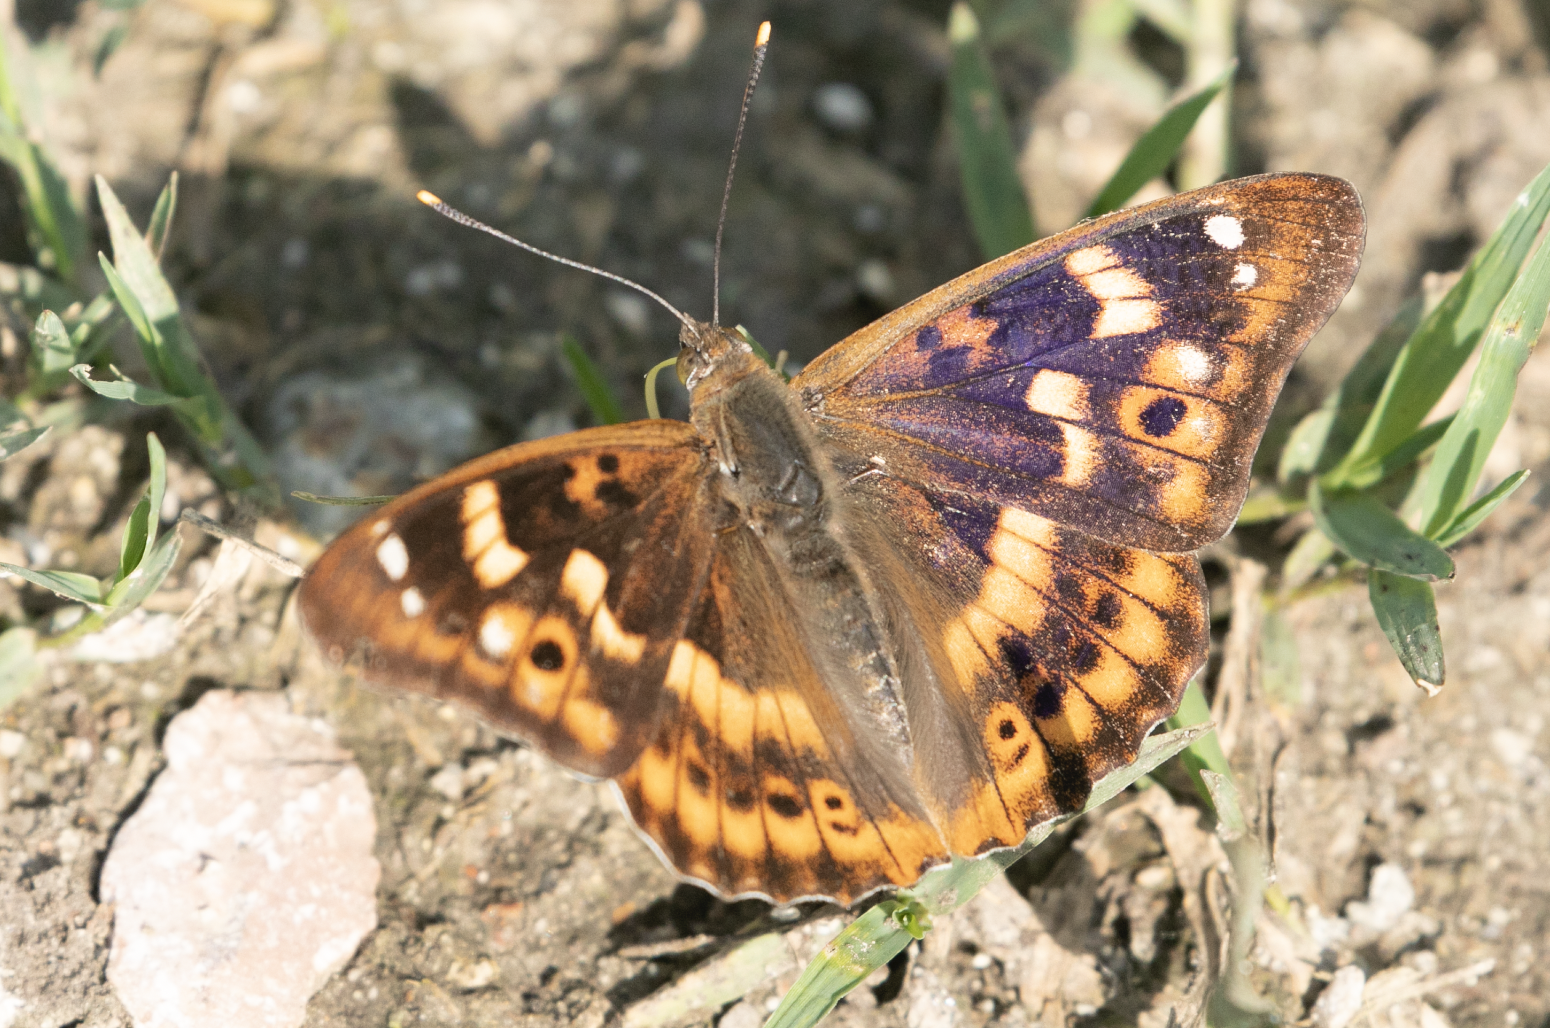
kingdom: Animalia
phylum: Arthropoda
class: Insecta
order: Lepidoptera
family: Nymphalidae
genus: Apatura
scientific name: Apatura ilia
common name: Lesser purple emperor
